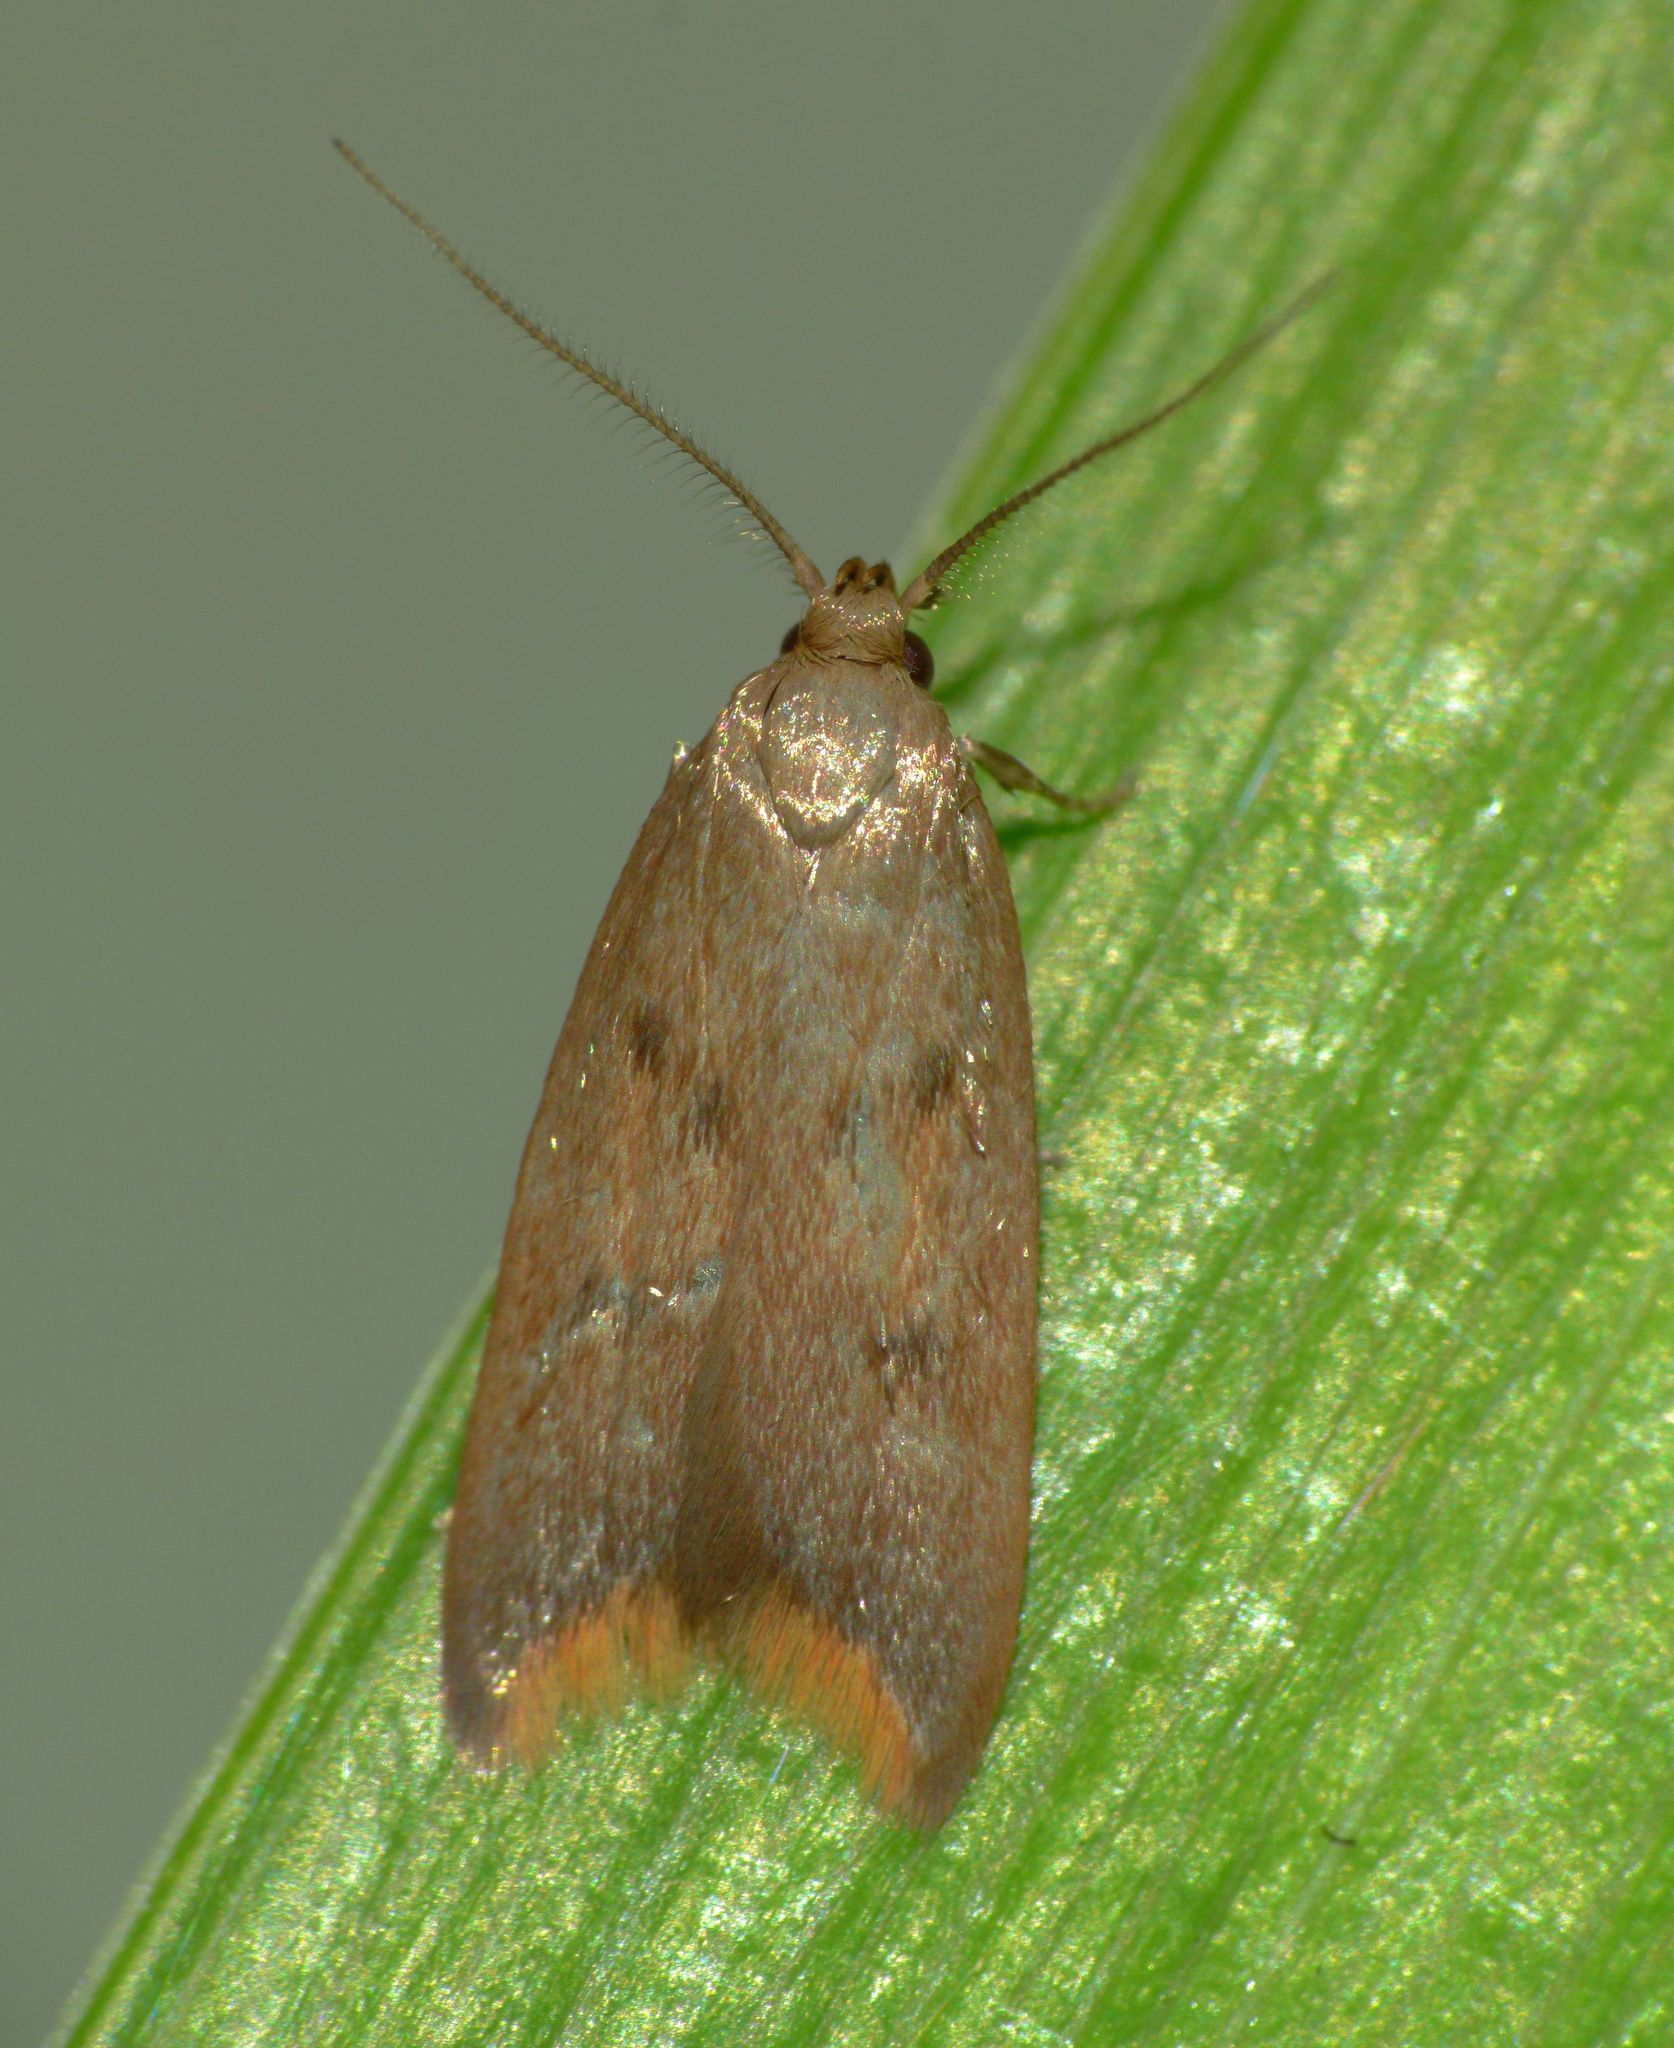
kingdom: Animalia
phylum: Arthropoda
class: Insecta
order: Lepidoptera
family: Oecophoridae
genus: Tachystola
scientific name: Tachystola acroxantha
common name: Ruddy streak
